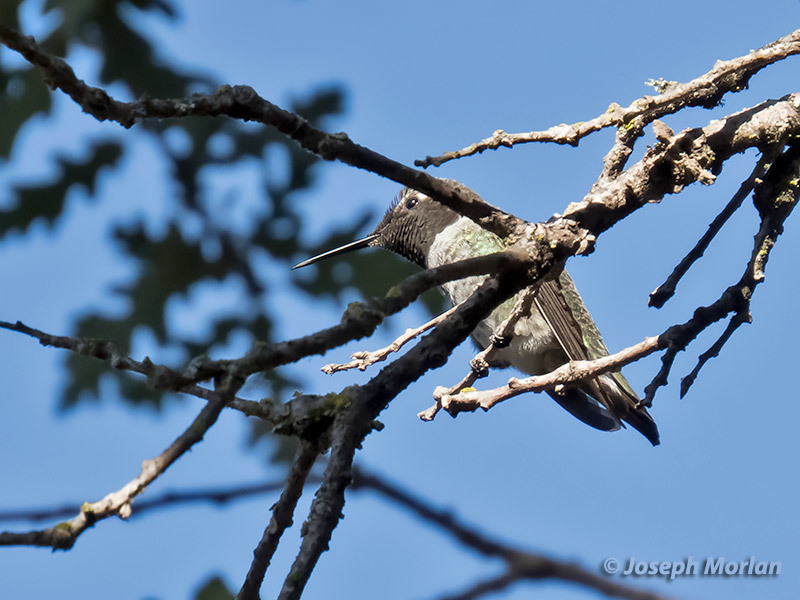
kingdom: Animalia
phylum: Chordata
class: Aves
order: Apodiformes
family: Trochilidae
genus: Calypte
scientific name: Calypte anna
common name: Anna's hummingbird
